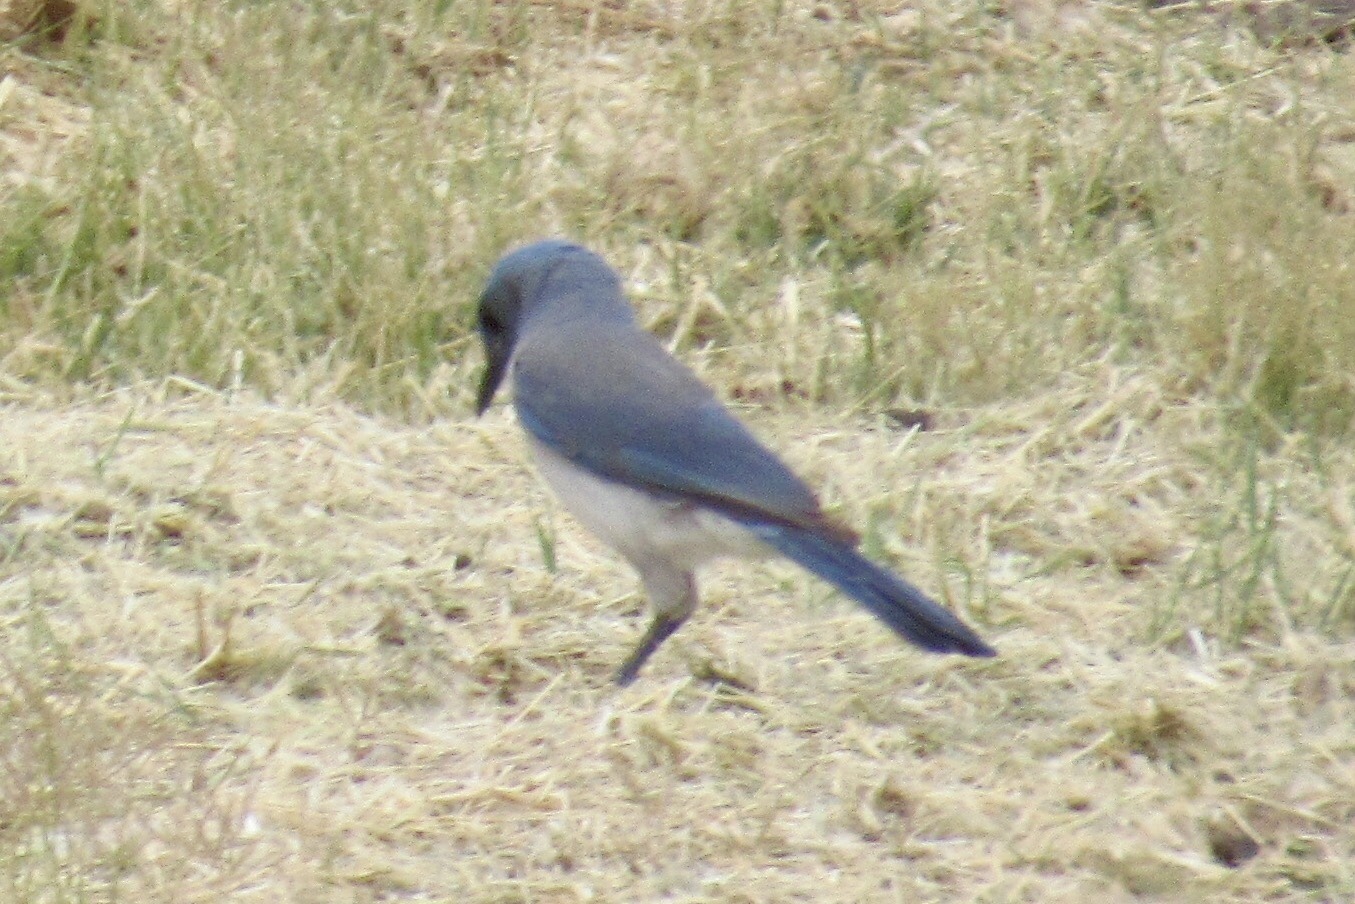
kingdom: Animalia
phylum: Chordata
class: Aves
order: Passeriformes
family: Corvidae
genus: Aphelocoma
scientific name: Aphelocoma wollweberi
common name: Mexican jay
